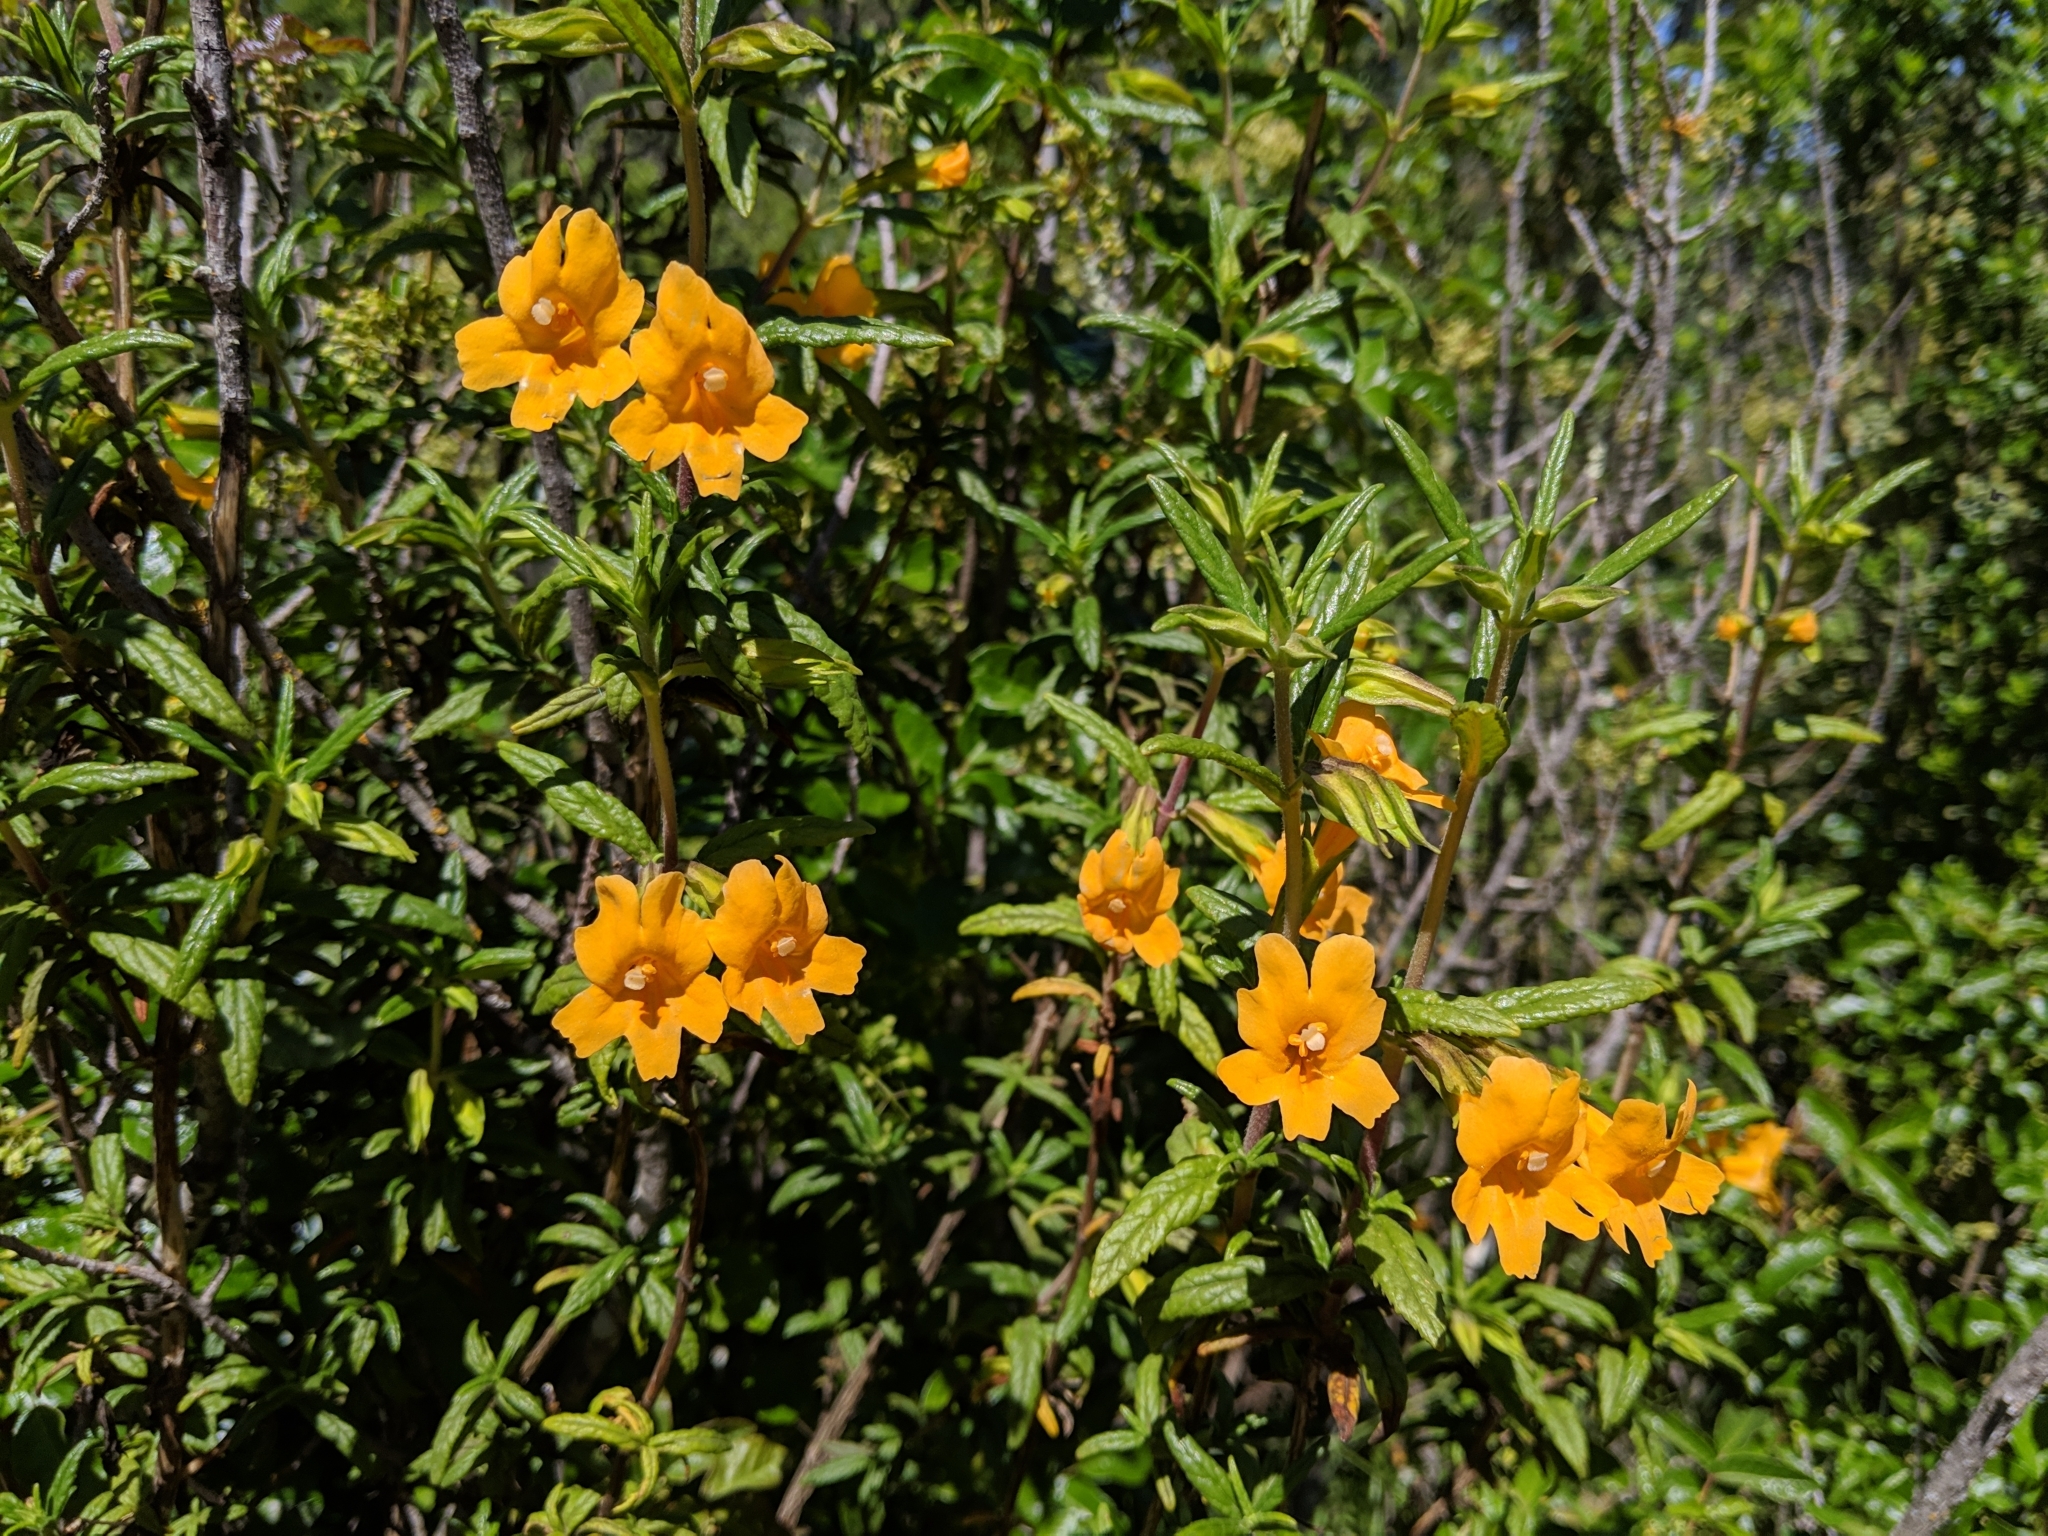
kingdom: Plantae
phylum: Tracheophyta
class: Magnoliopsida
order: Lamiales
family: Phrymaceae
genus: Diplacus
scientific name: Diplacus aurantiacus
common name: Bush monkey-flower
